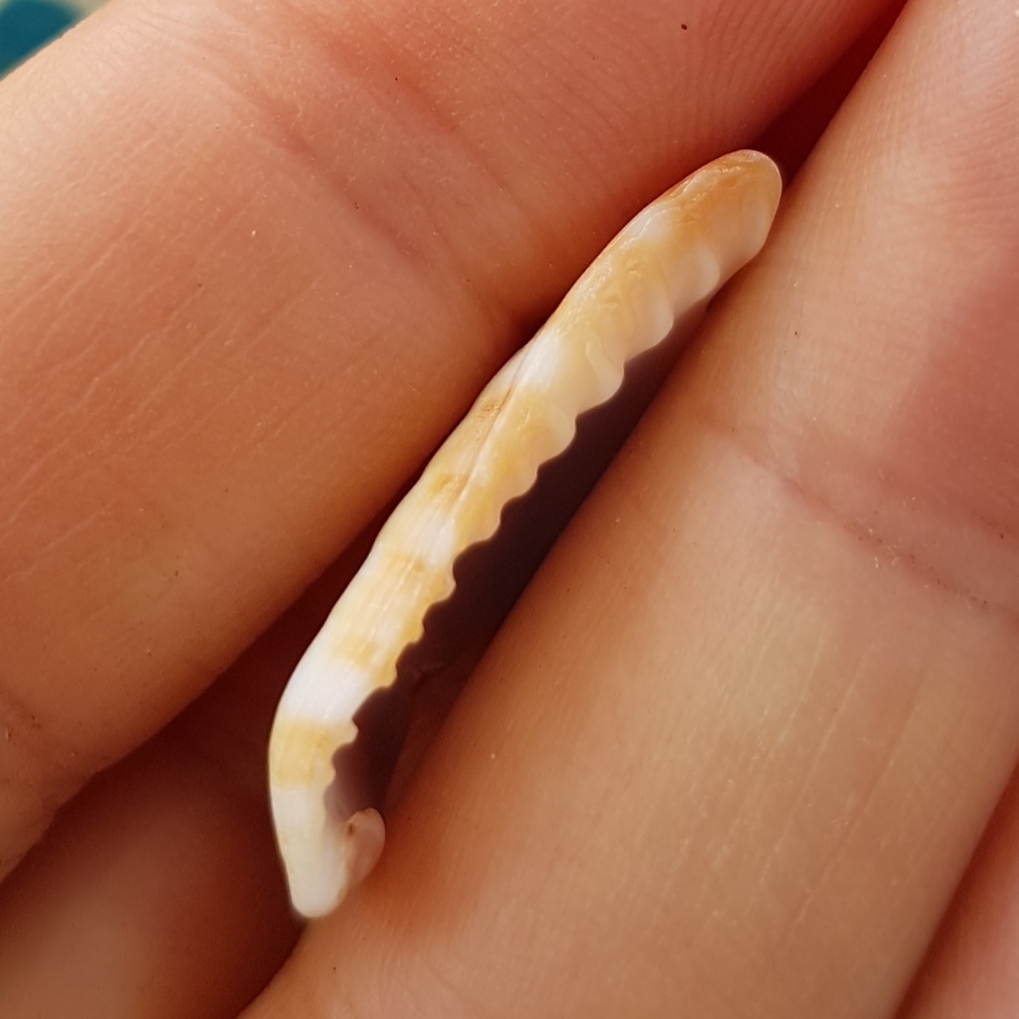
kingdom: Animalia
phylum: Mollusca
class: Gastropoda
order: Littorinimorpha
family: Cassidae
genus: Cypraecassis
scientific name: Cypraecassis coarctata
